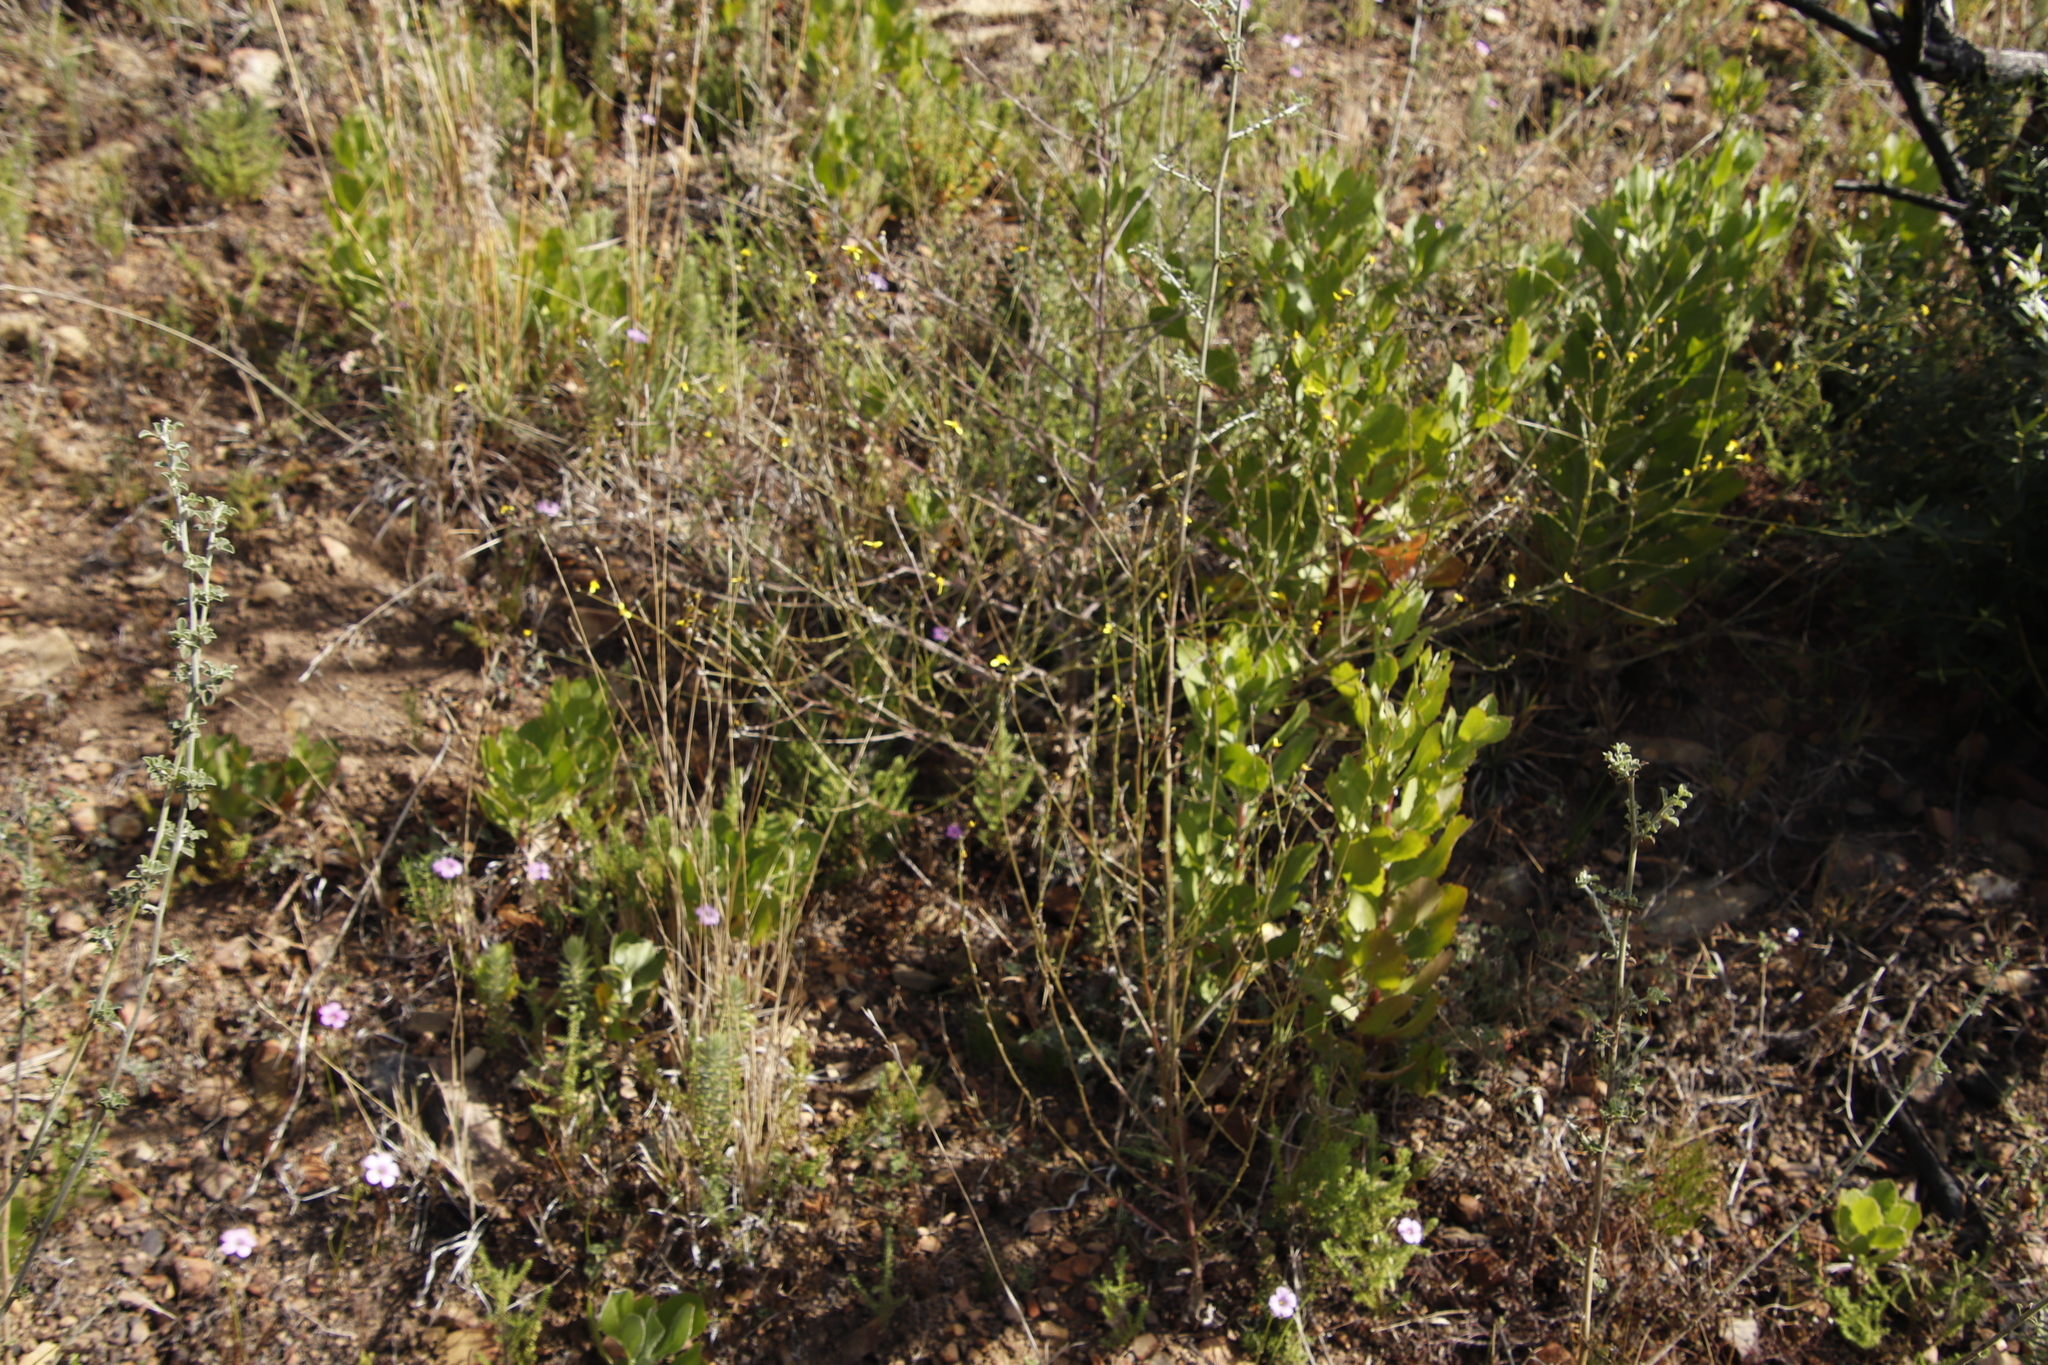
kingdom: Plantae
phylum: Tracheophyta
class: Magnoliopsida
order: Asterales
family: Asteraceae
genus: Senecio
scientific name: Senecio pubigerus
